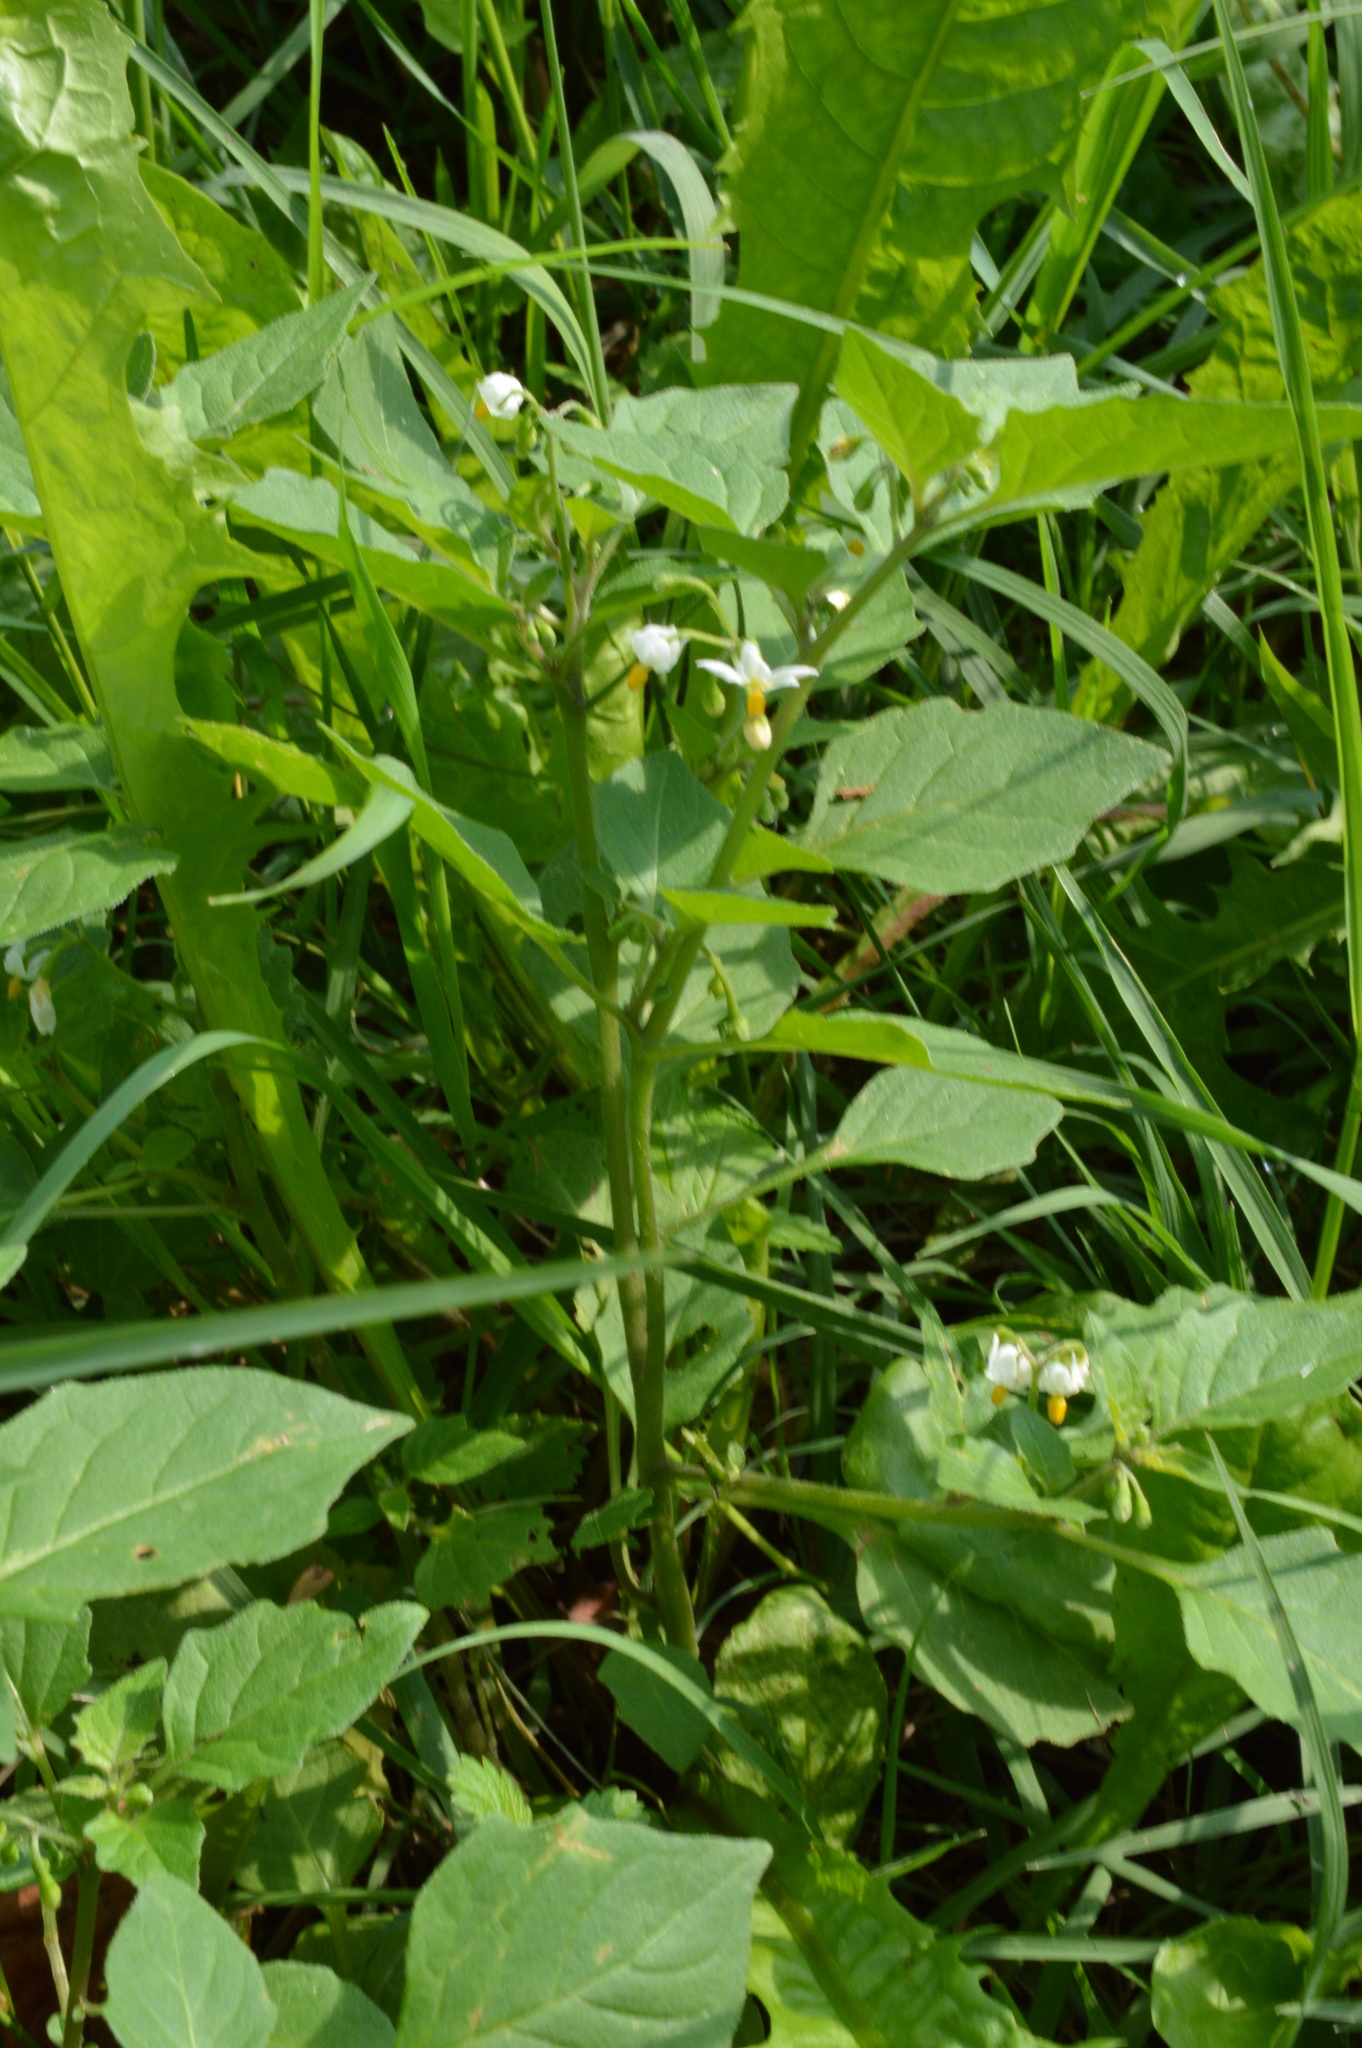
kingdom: Plantae
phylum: Tracheophyta
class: Magnoliopsida
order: Solanales
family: Solanaceae
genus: Solanum
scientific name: Solanum nigrum
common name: Black nightshade
